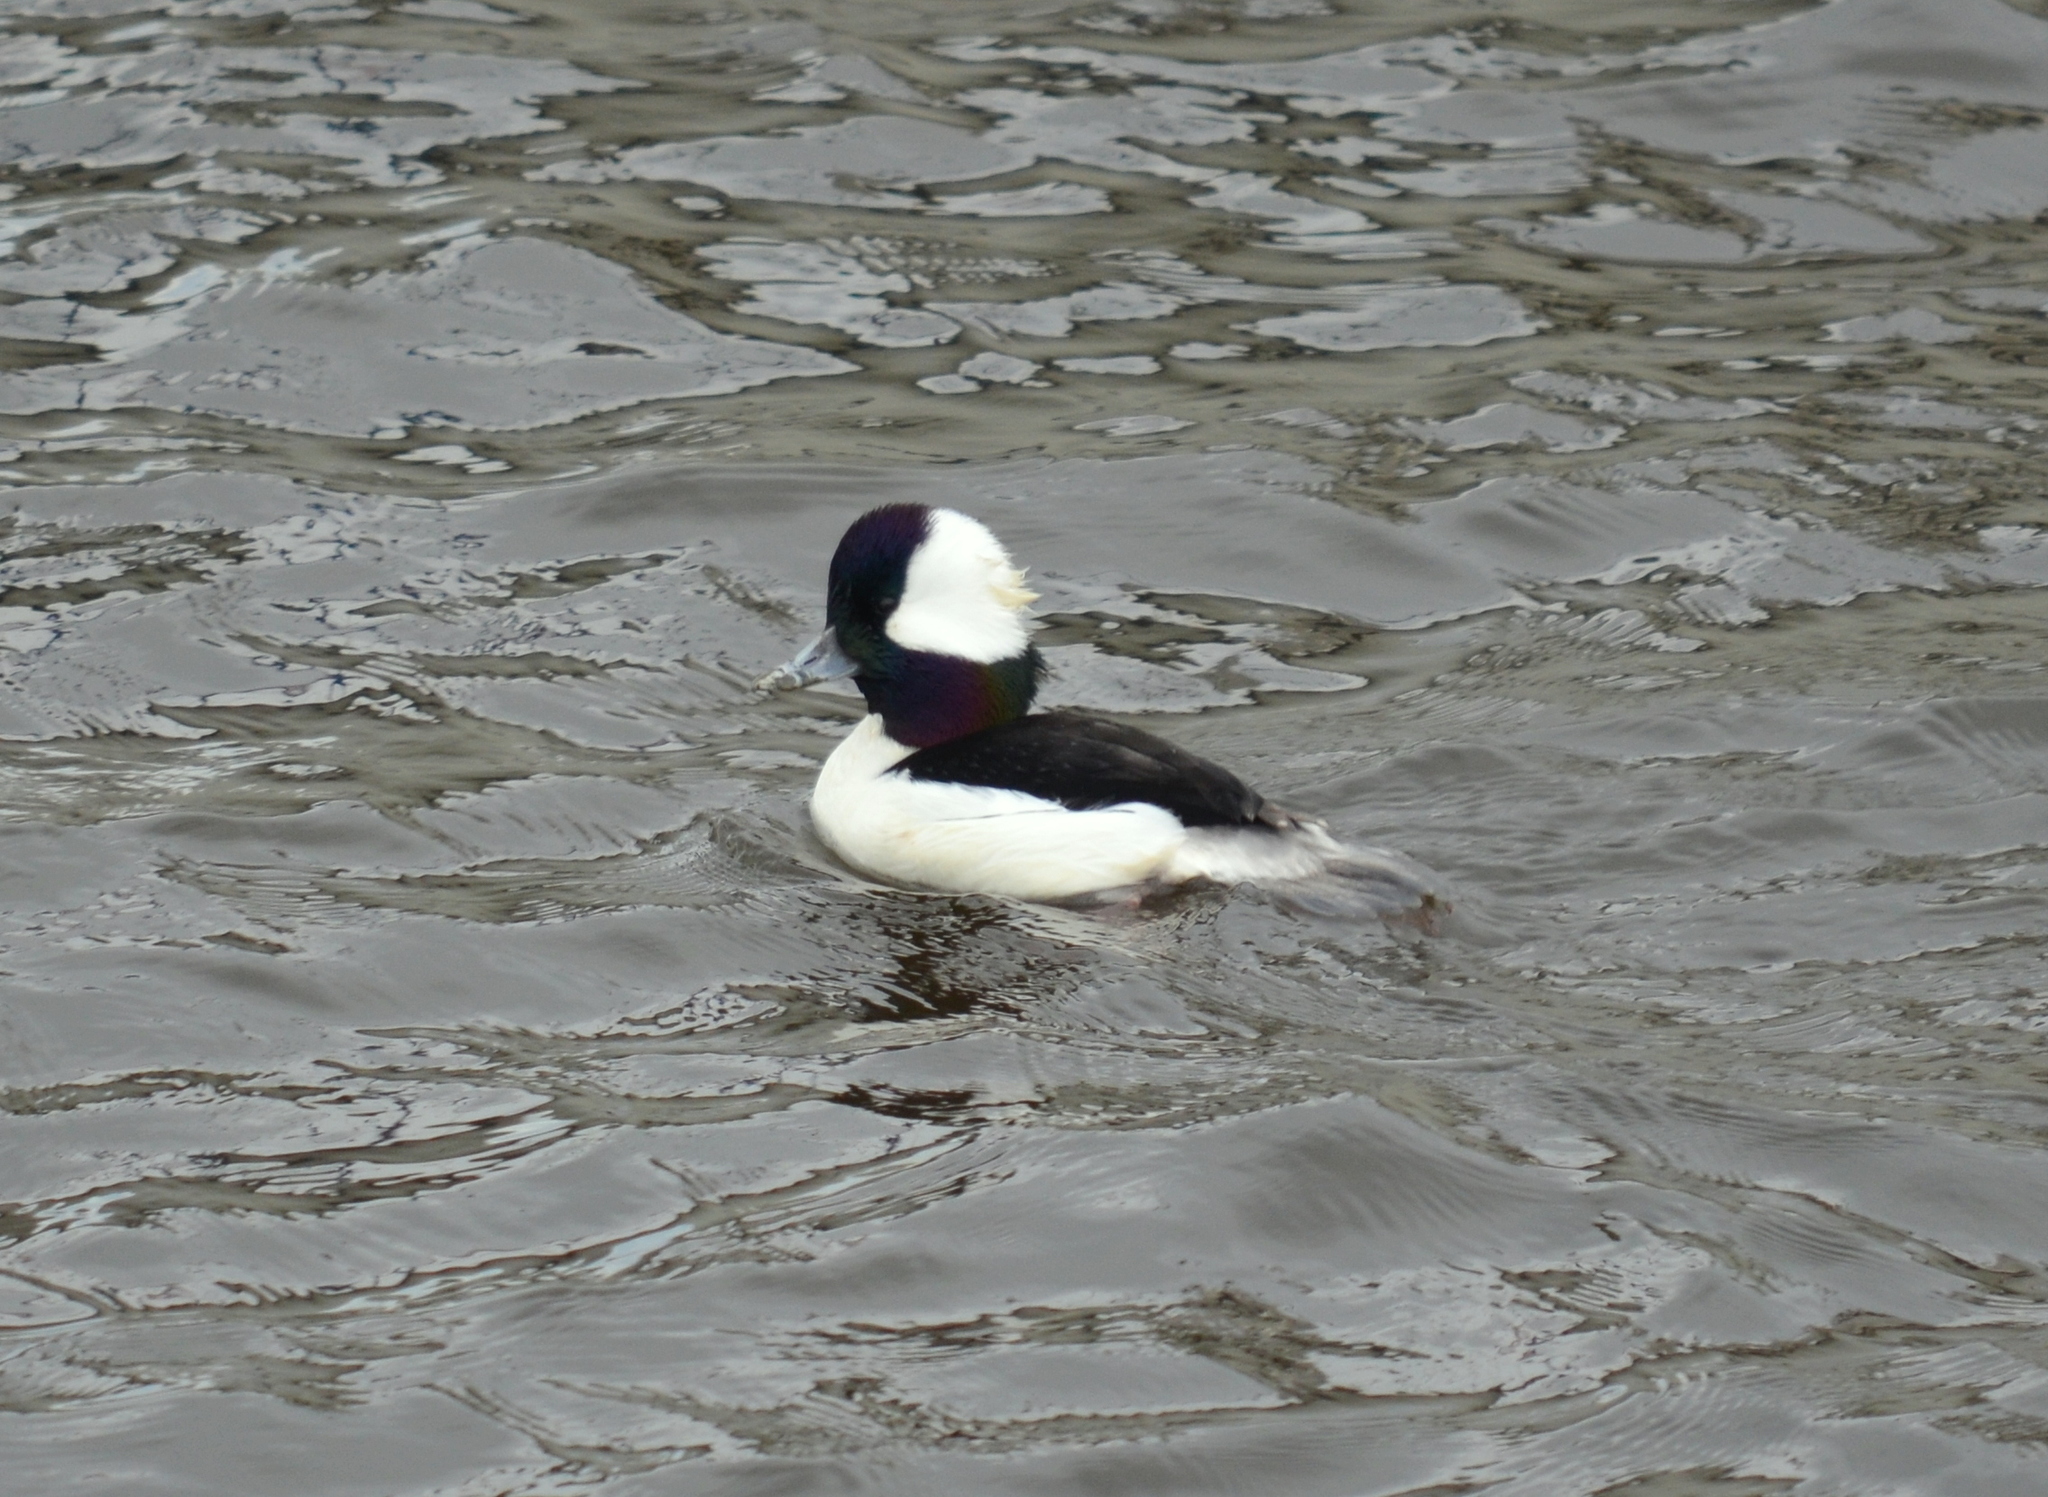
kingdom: Animalia
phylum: Chordata
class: Aves
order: Anseriformes
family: Anatidae
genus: Bucephala
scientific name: Bucephala albeola
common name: Bufflehead
